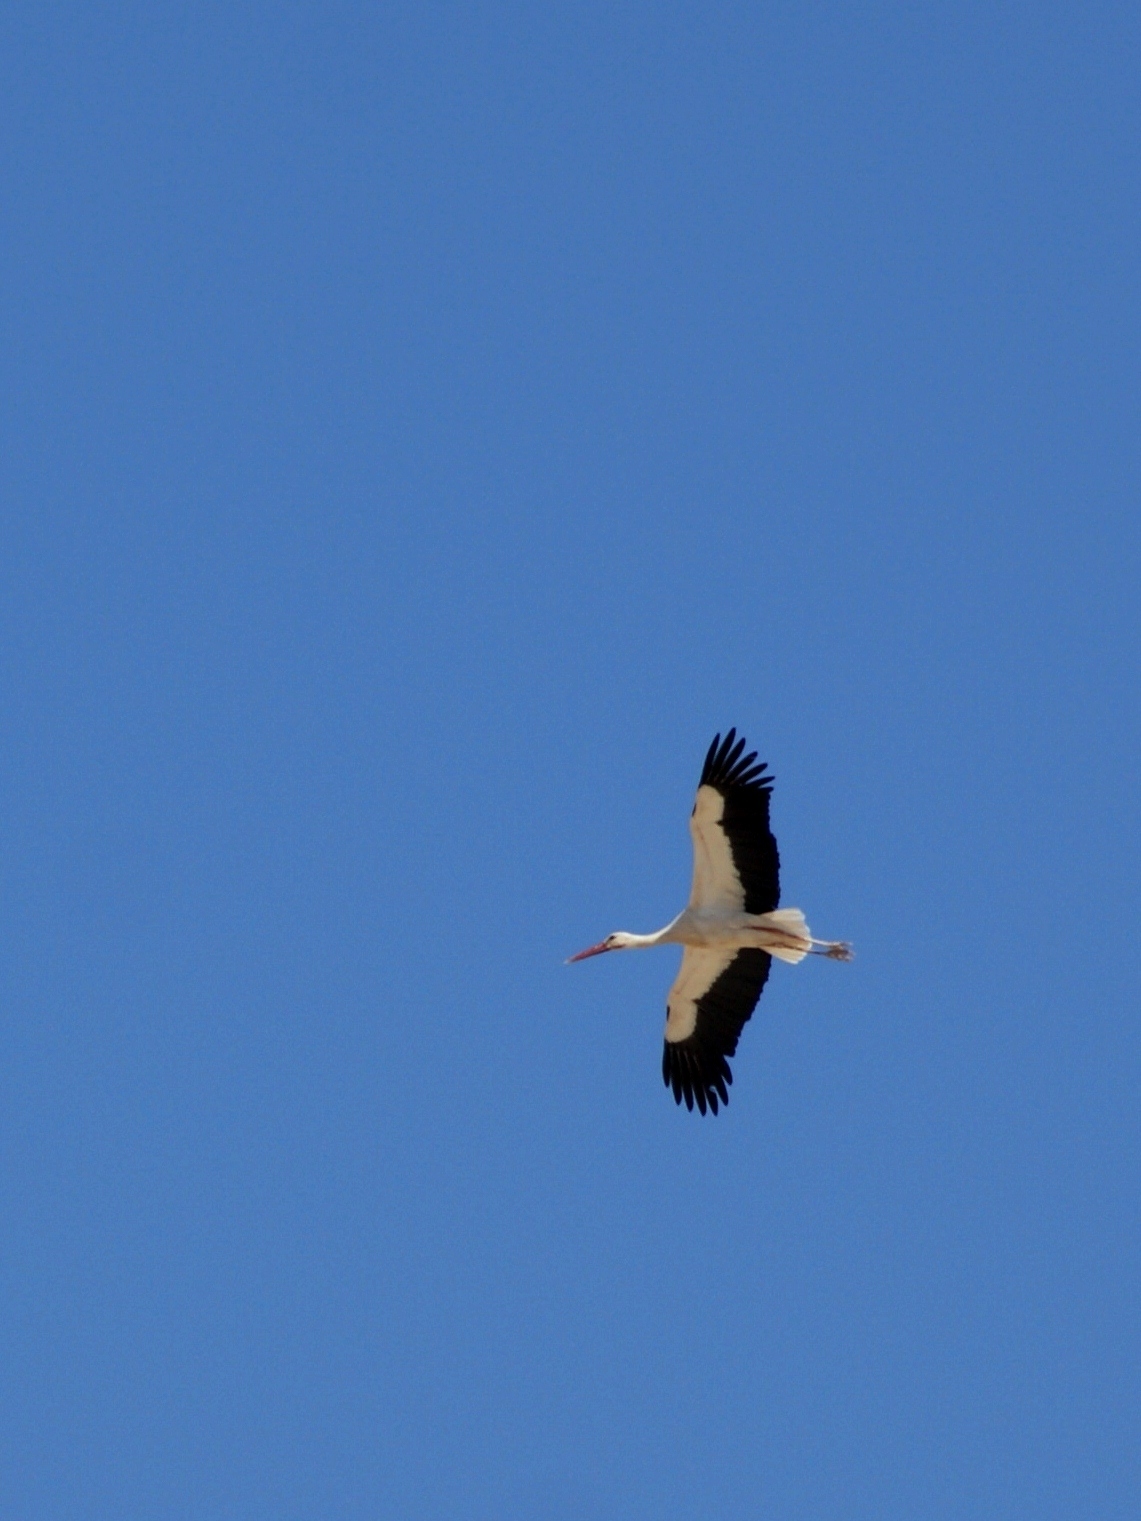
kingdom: Animalia
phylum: Chordata
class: Aves
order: Ciconiiformes
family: Ciconiidae
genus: Ciconia
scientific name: Ciconia ciconia
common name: White stork
